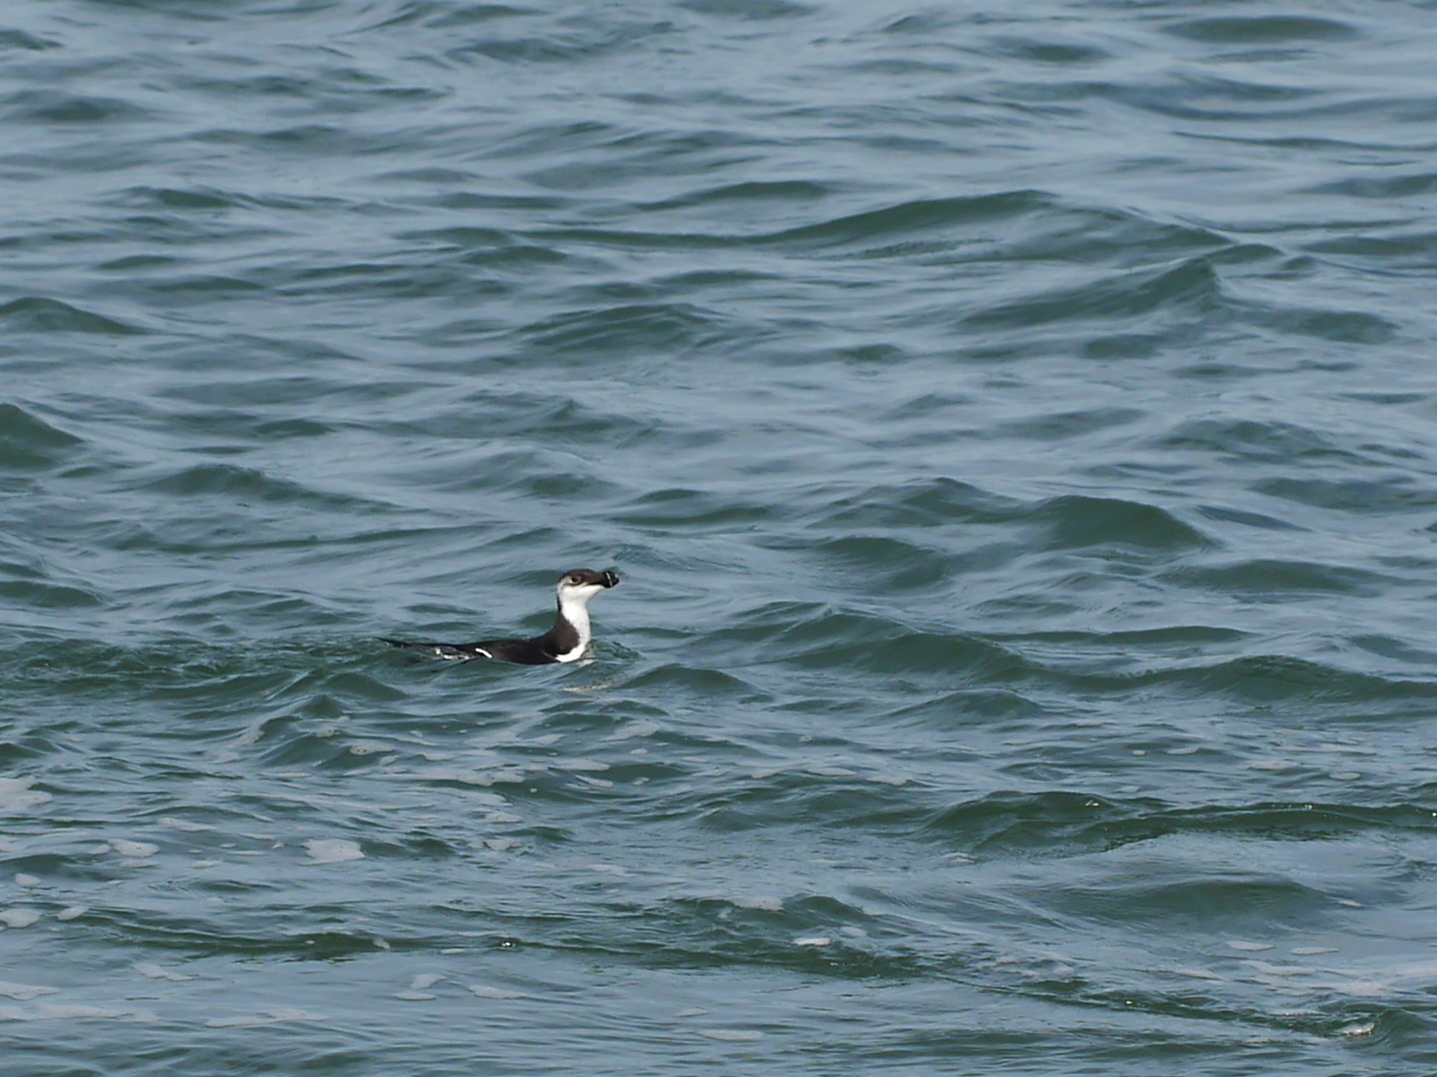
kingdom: Animalia
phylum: Chordata
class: Aves
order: Charadriiformes
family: Alcidae
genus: Alca
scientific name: Alca torda
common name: Razorbill
